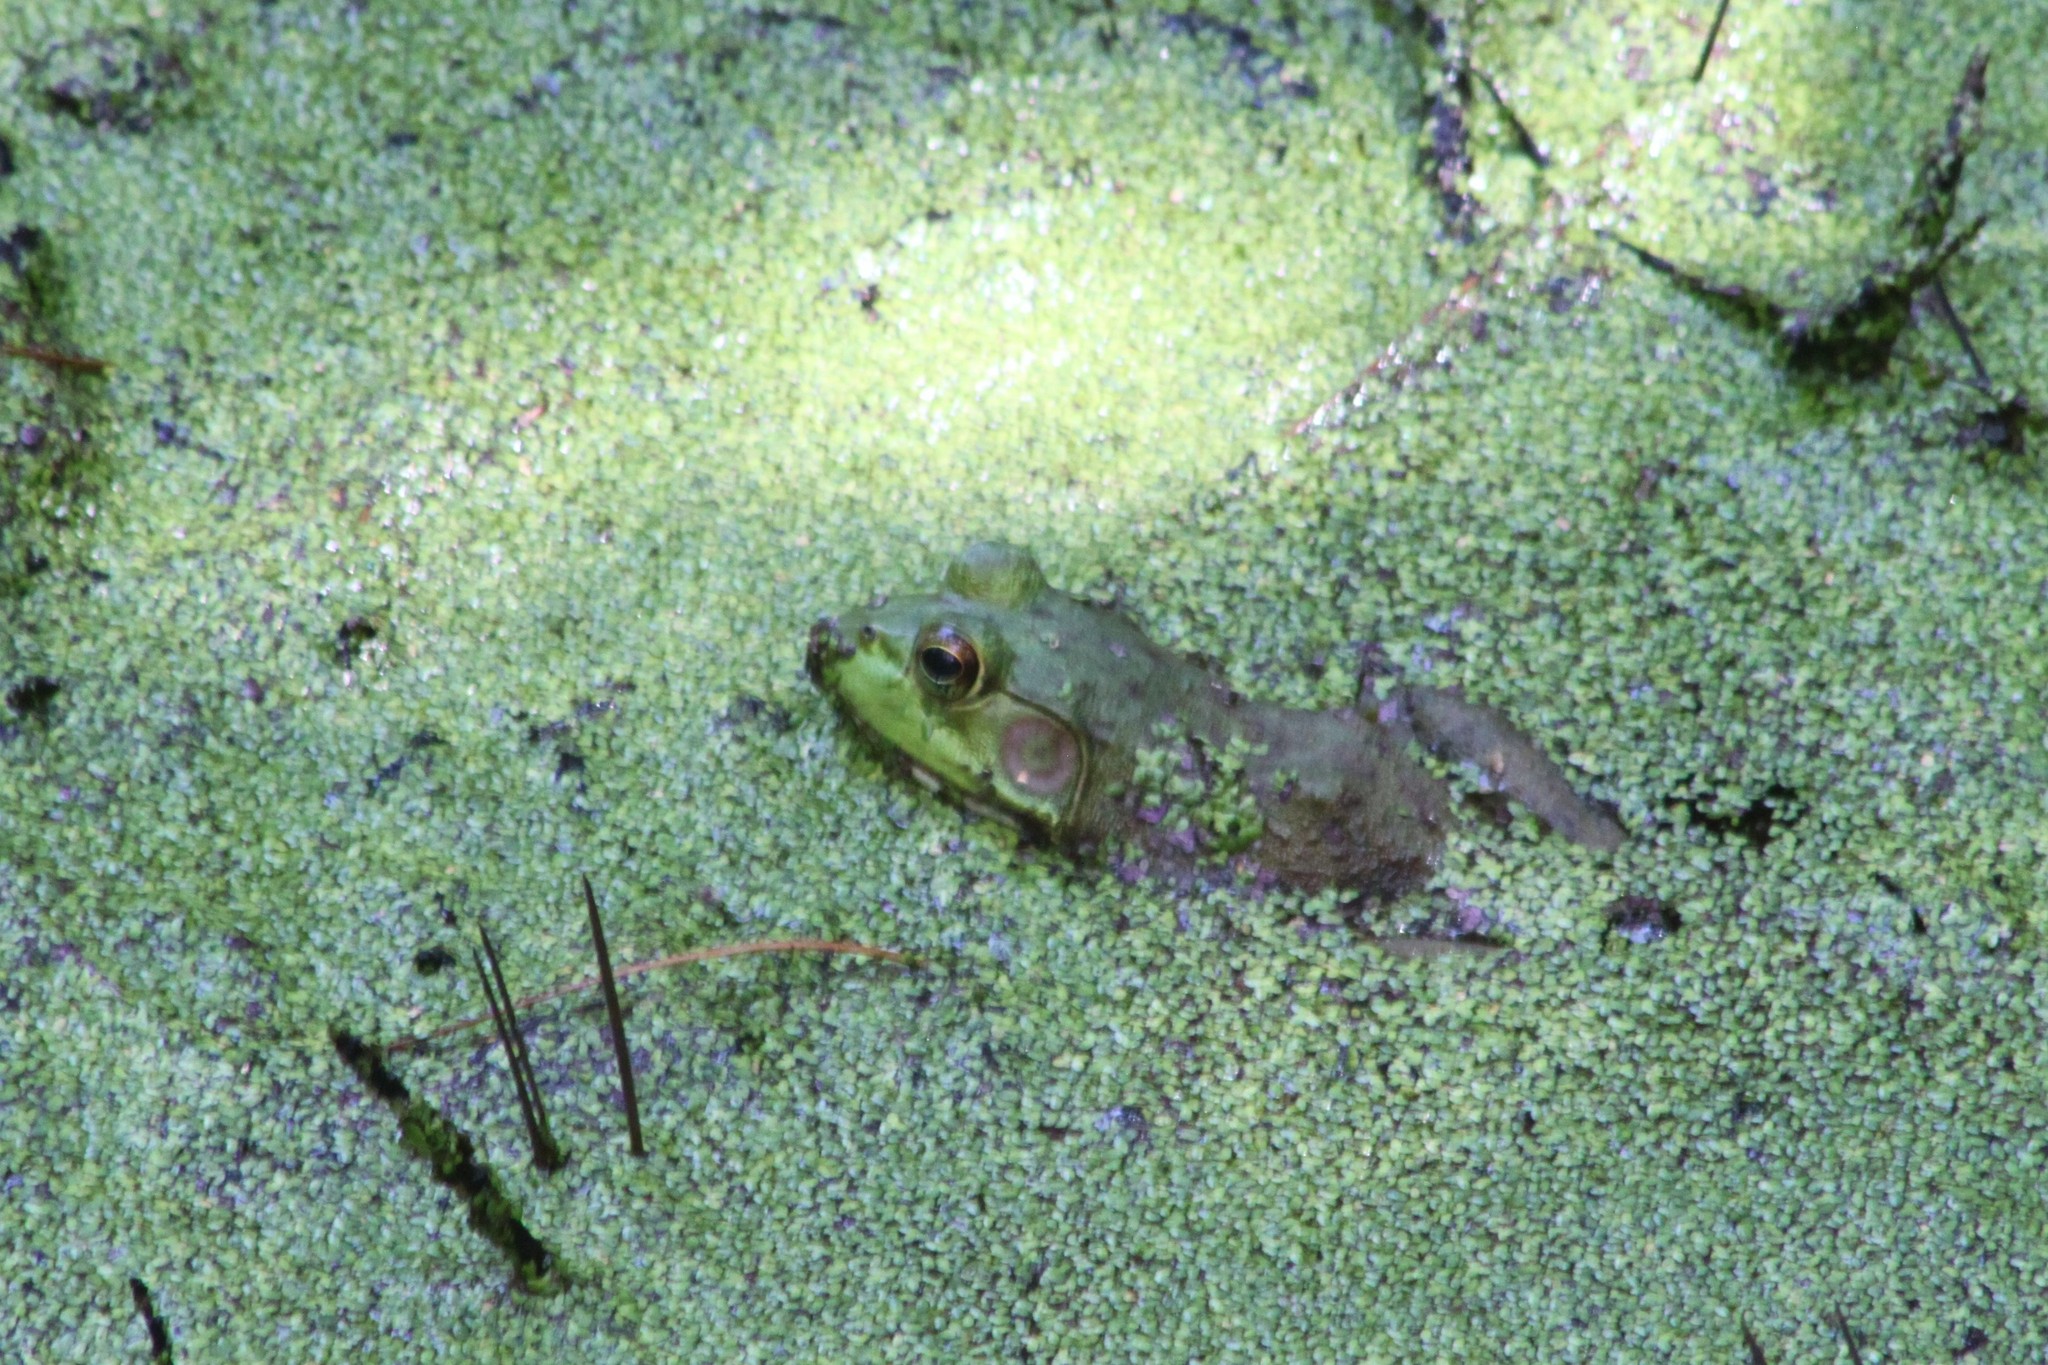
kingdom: Animalia
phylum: Chordata
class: Amphibia
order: Anura
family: Ranidae
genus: Lithobates
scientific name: Lithobates catesbeianus
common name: American bullfrog
